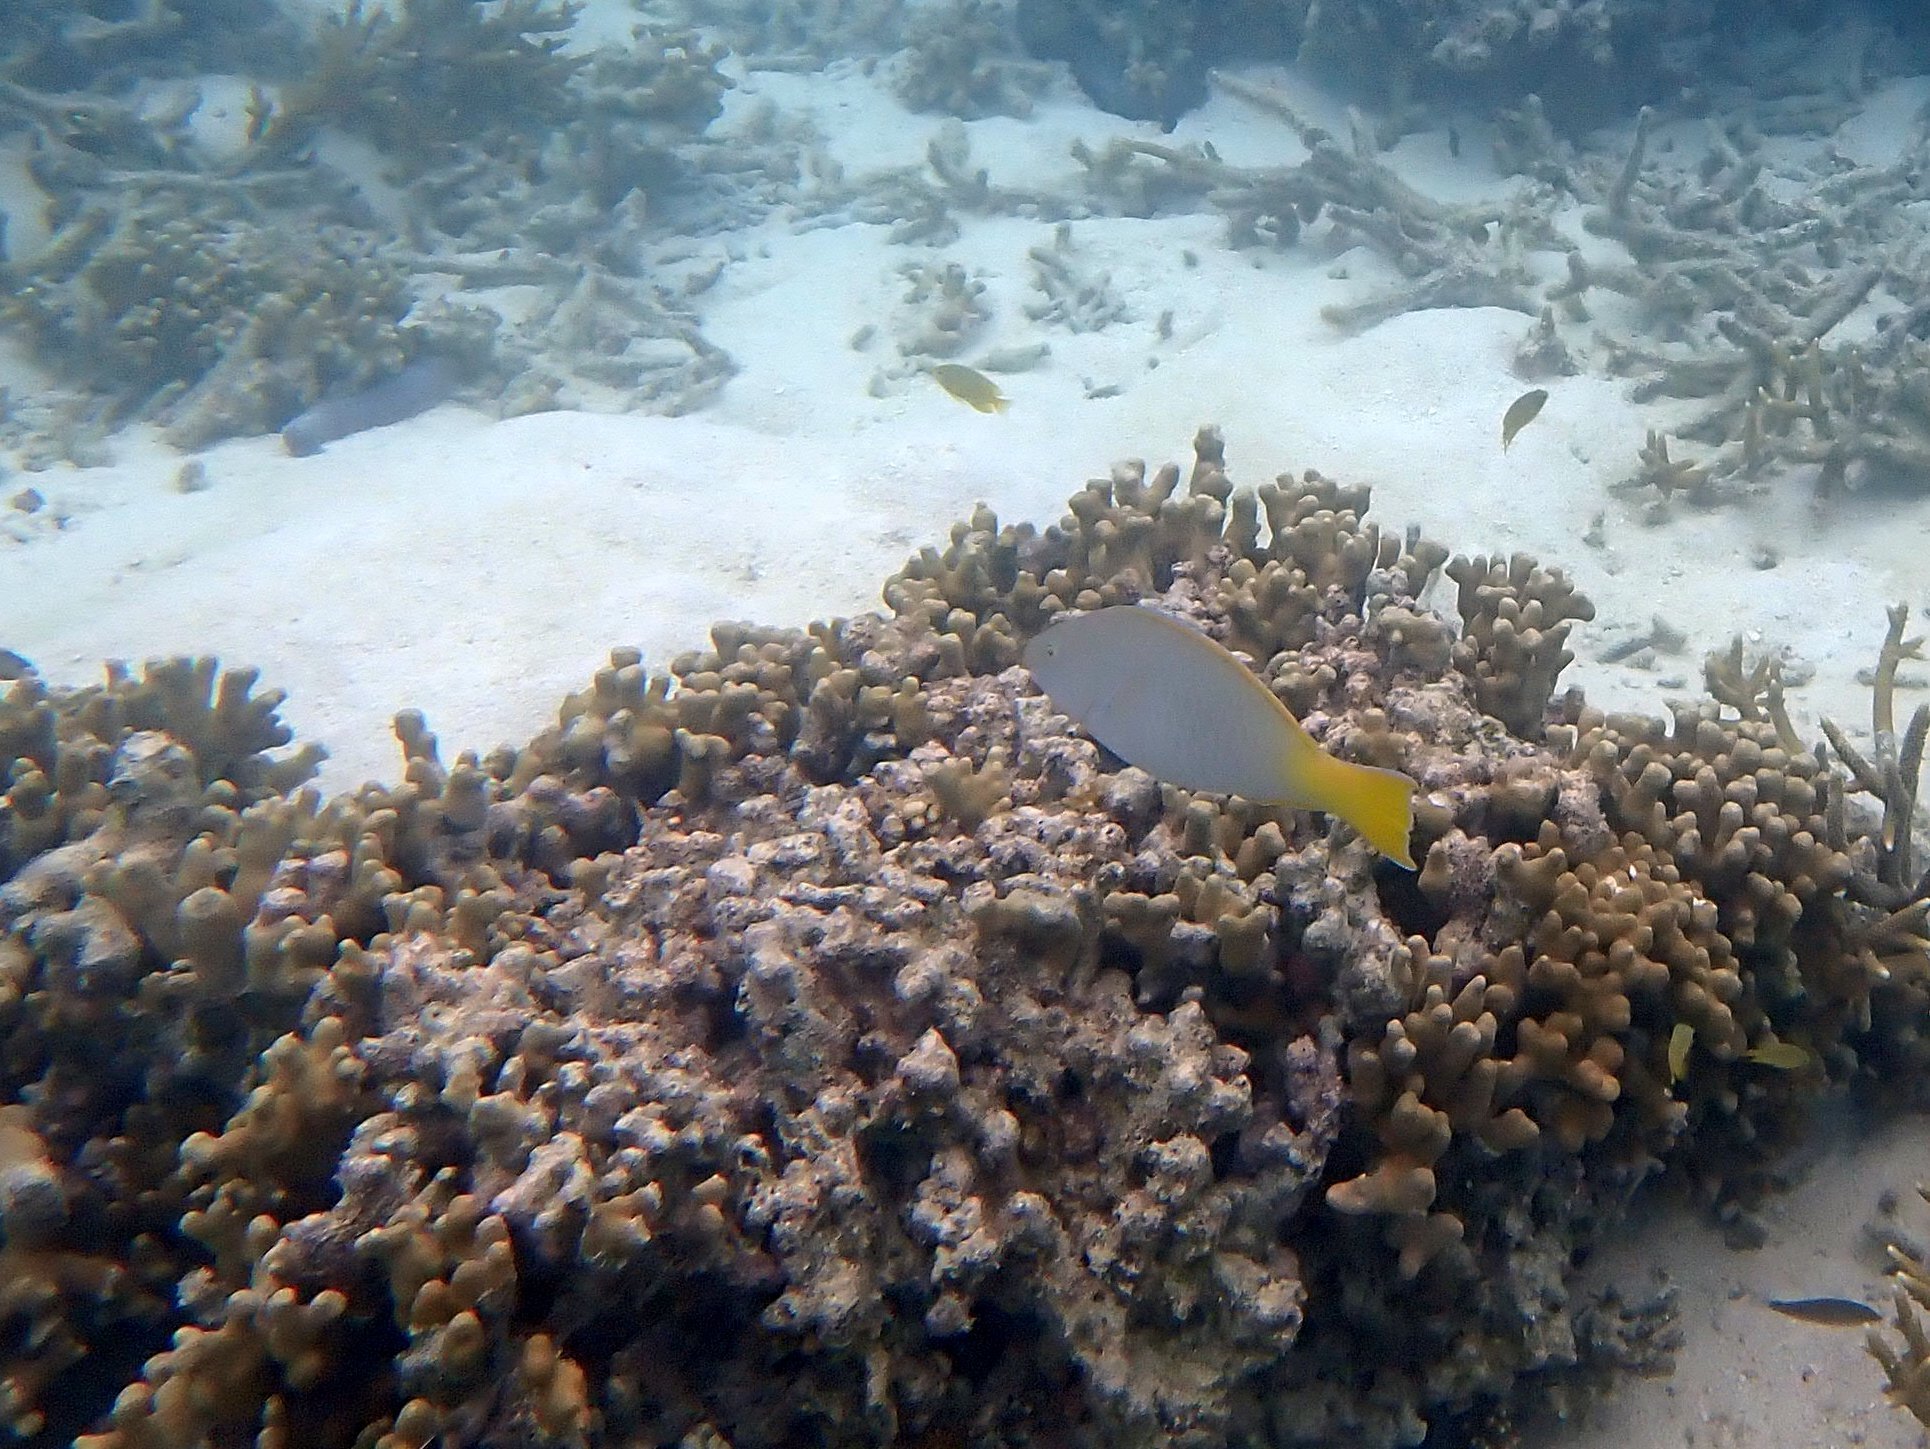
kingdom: Animalia
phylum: Chordata
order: Perciformes
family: Scaridae
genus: Hipposcarus
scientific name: Hipposcarus longiceps
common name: Pacific longnose parrotfish
